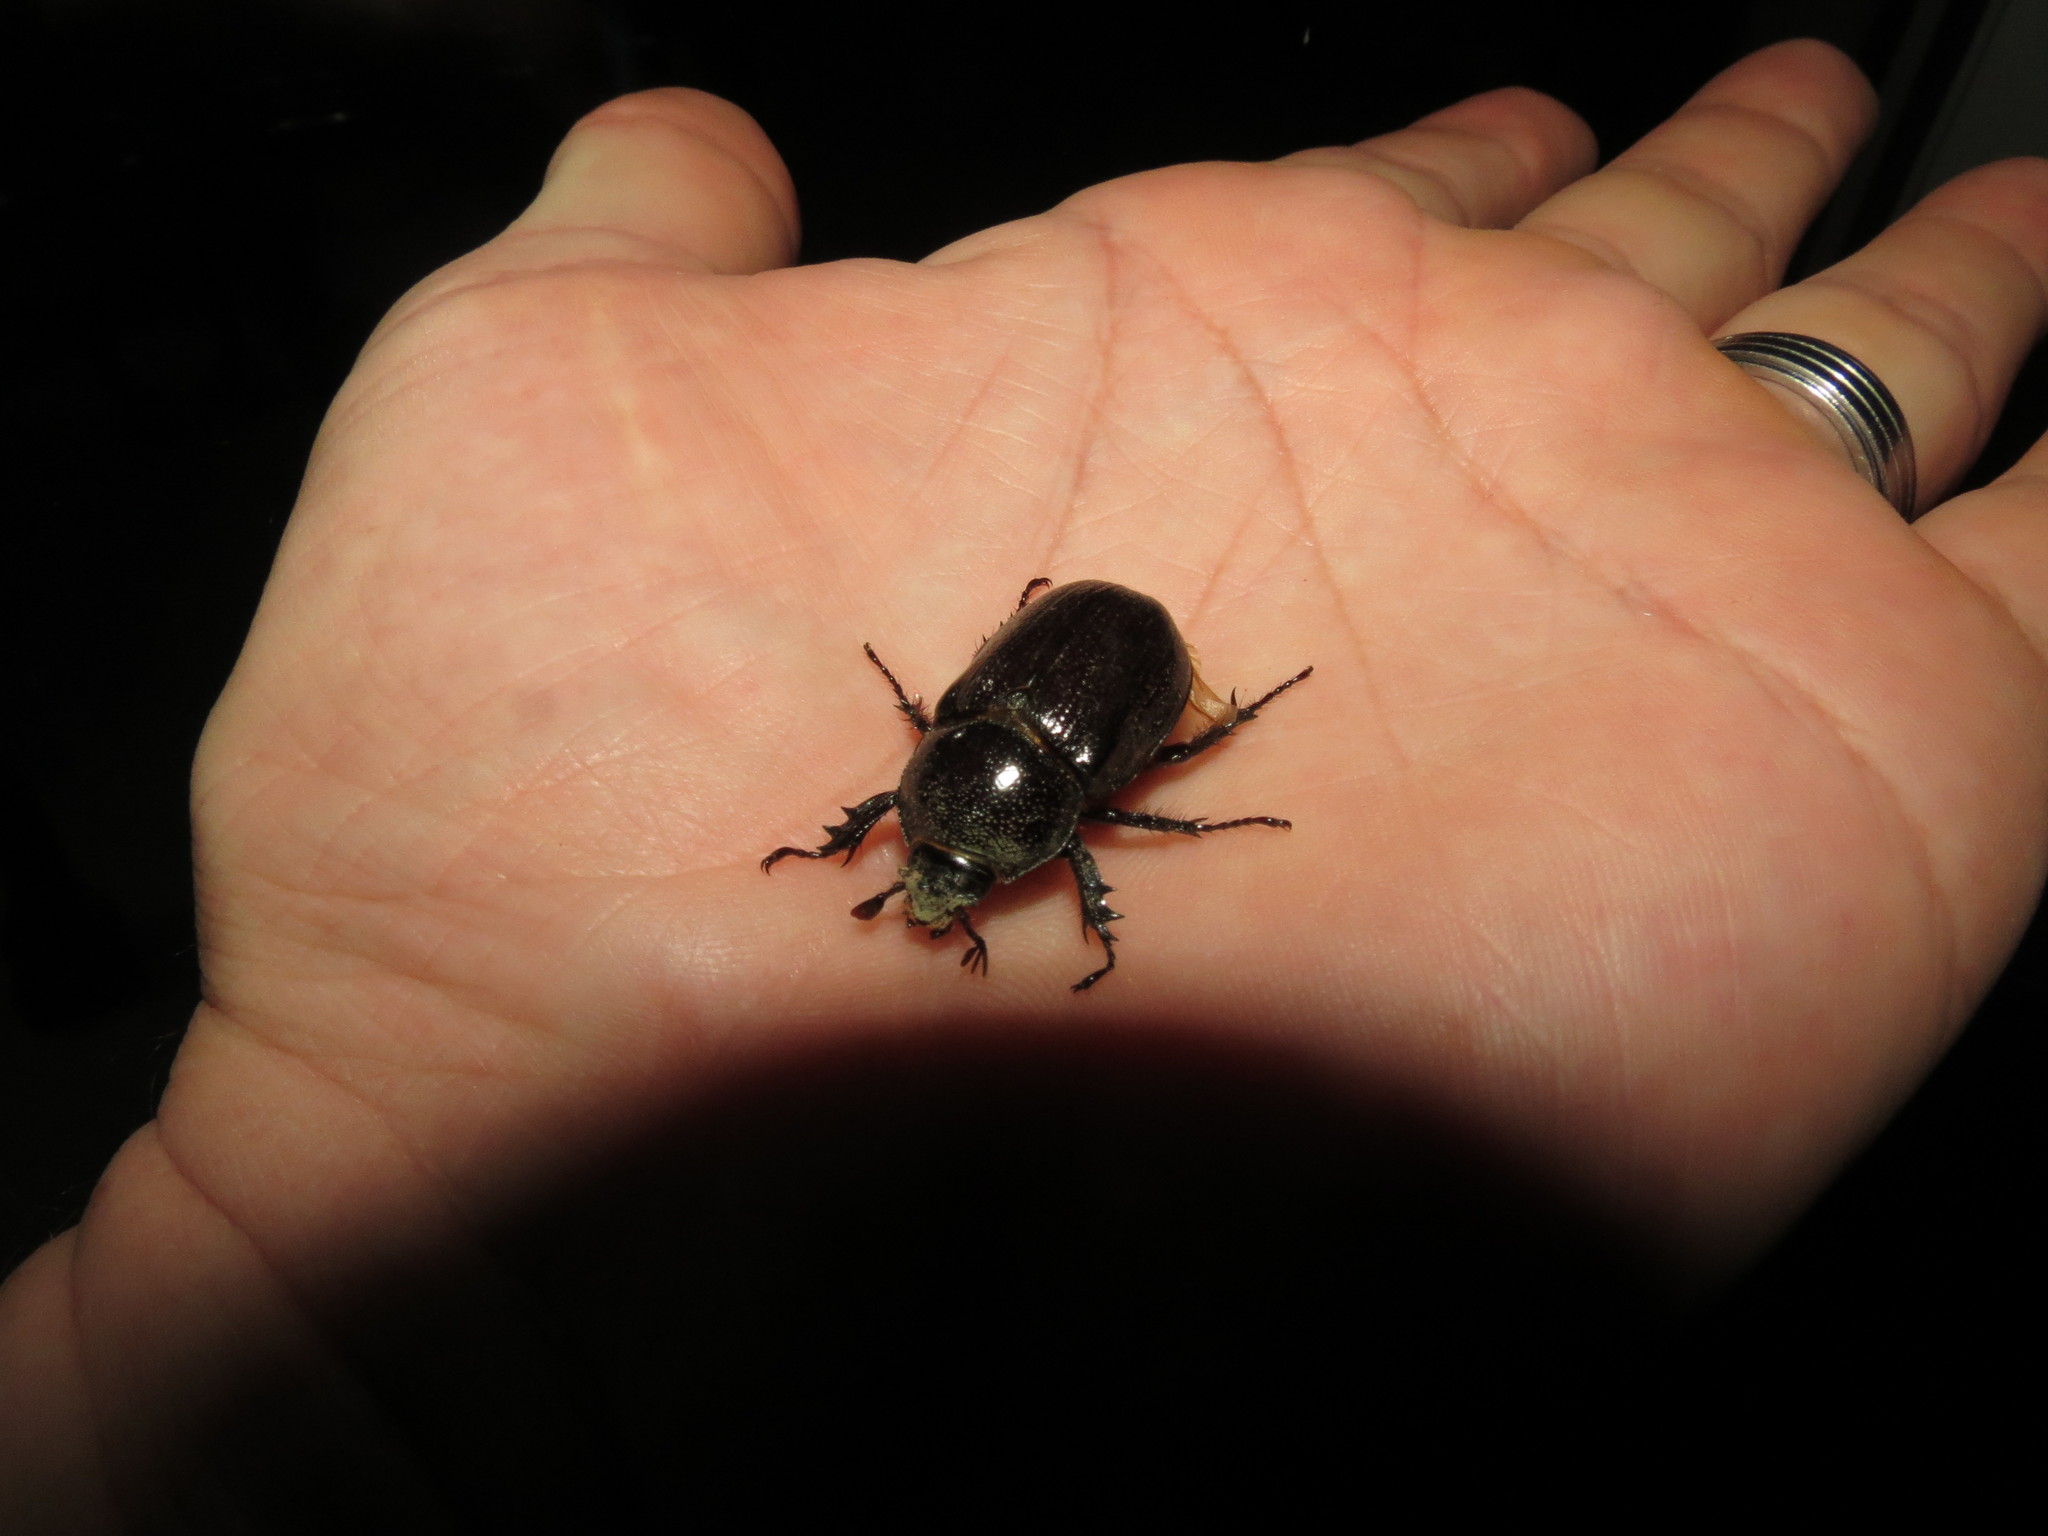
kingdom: Animalia
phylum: Arthropoda
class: Insecta
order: Coleoptera
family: Scarabaeidae
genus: Cyphonistes
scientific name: Cyphonistes vallatus
